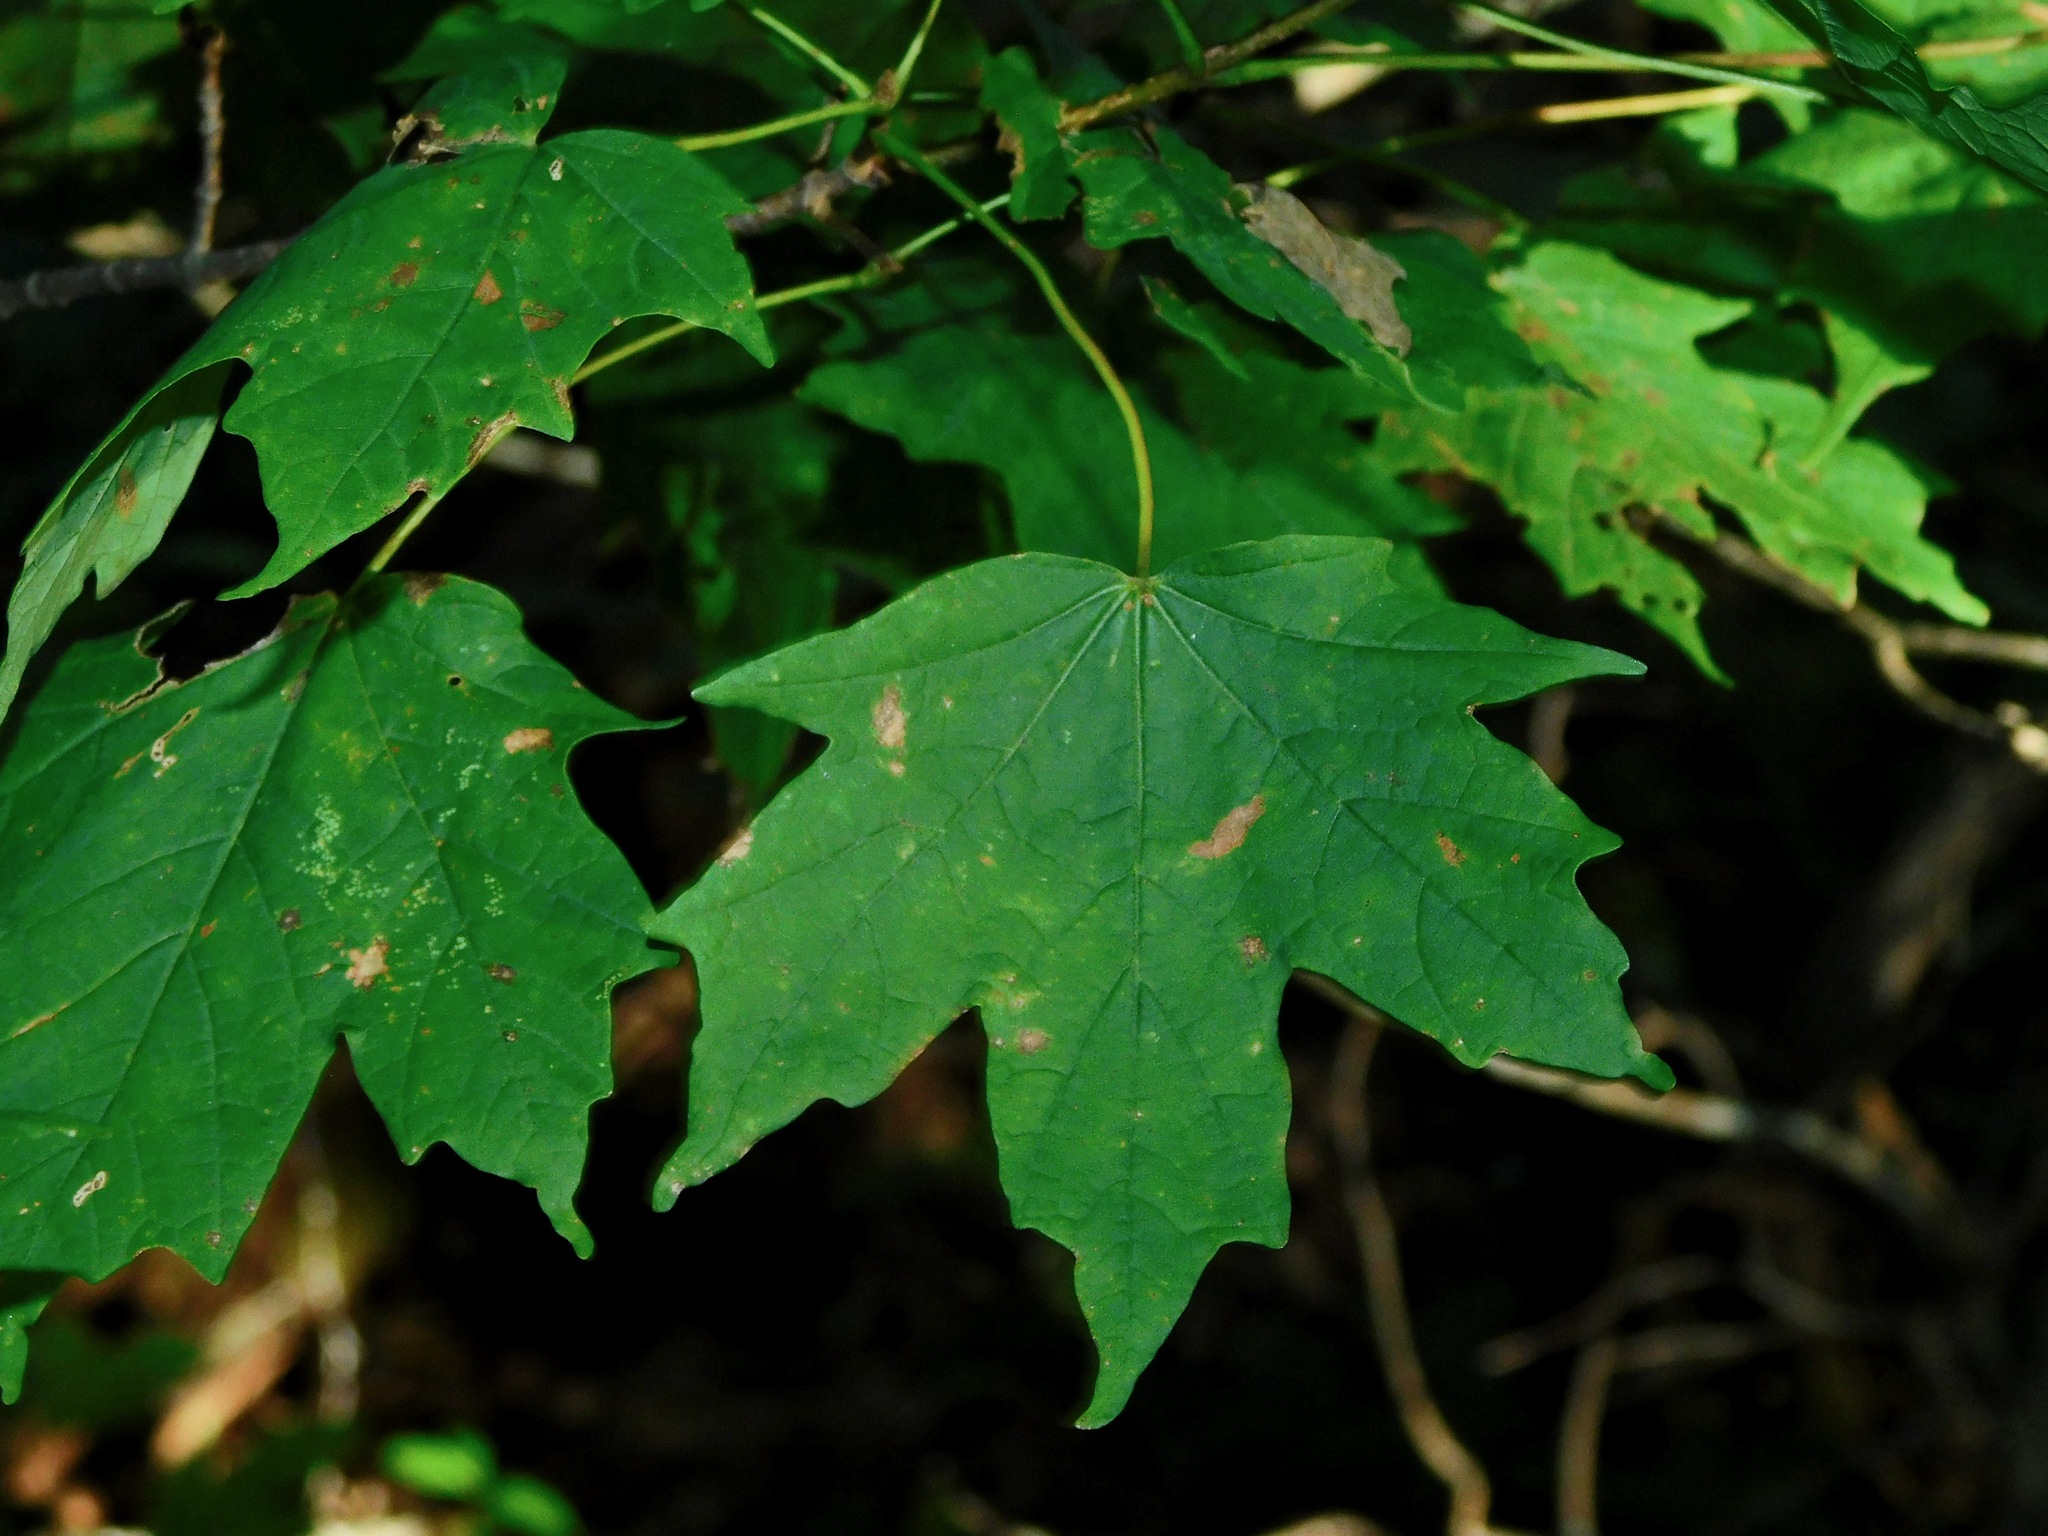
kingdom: Plantae
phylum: Tracheophyta
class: Magnoliopsida
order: Sapindales
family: Sapindaceae
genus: Acer
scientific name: Acer saccharum
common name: Sugar maple
